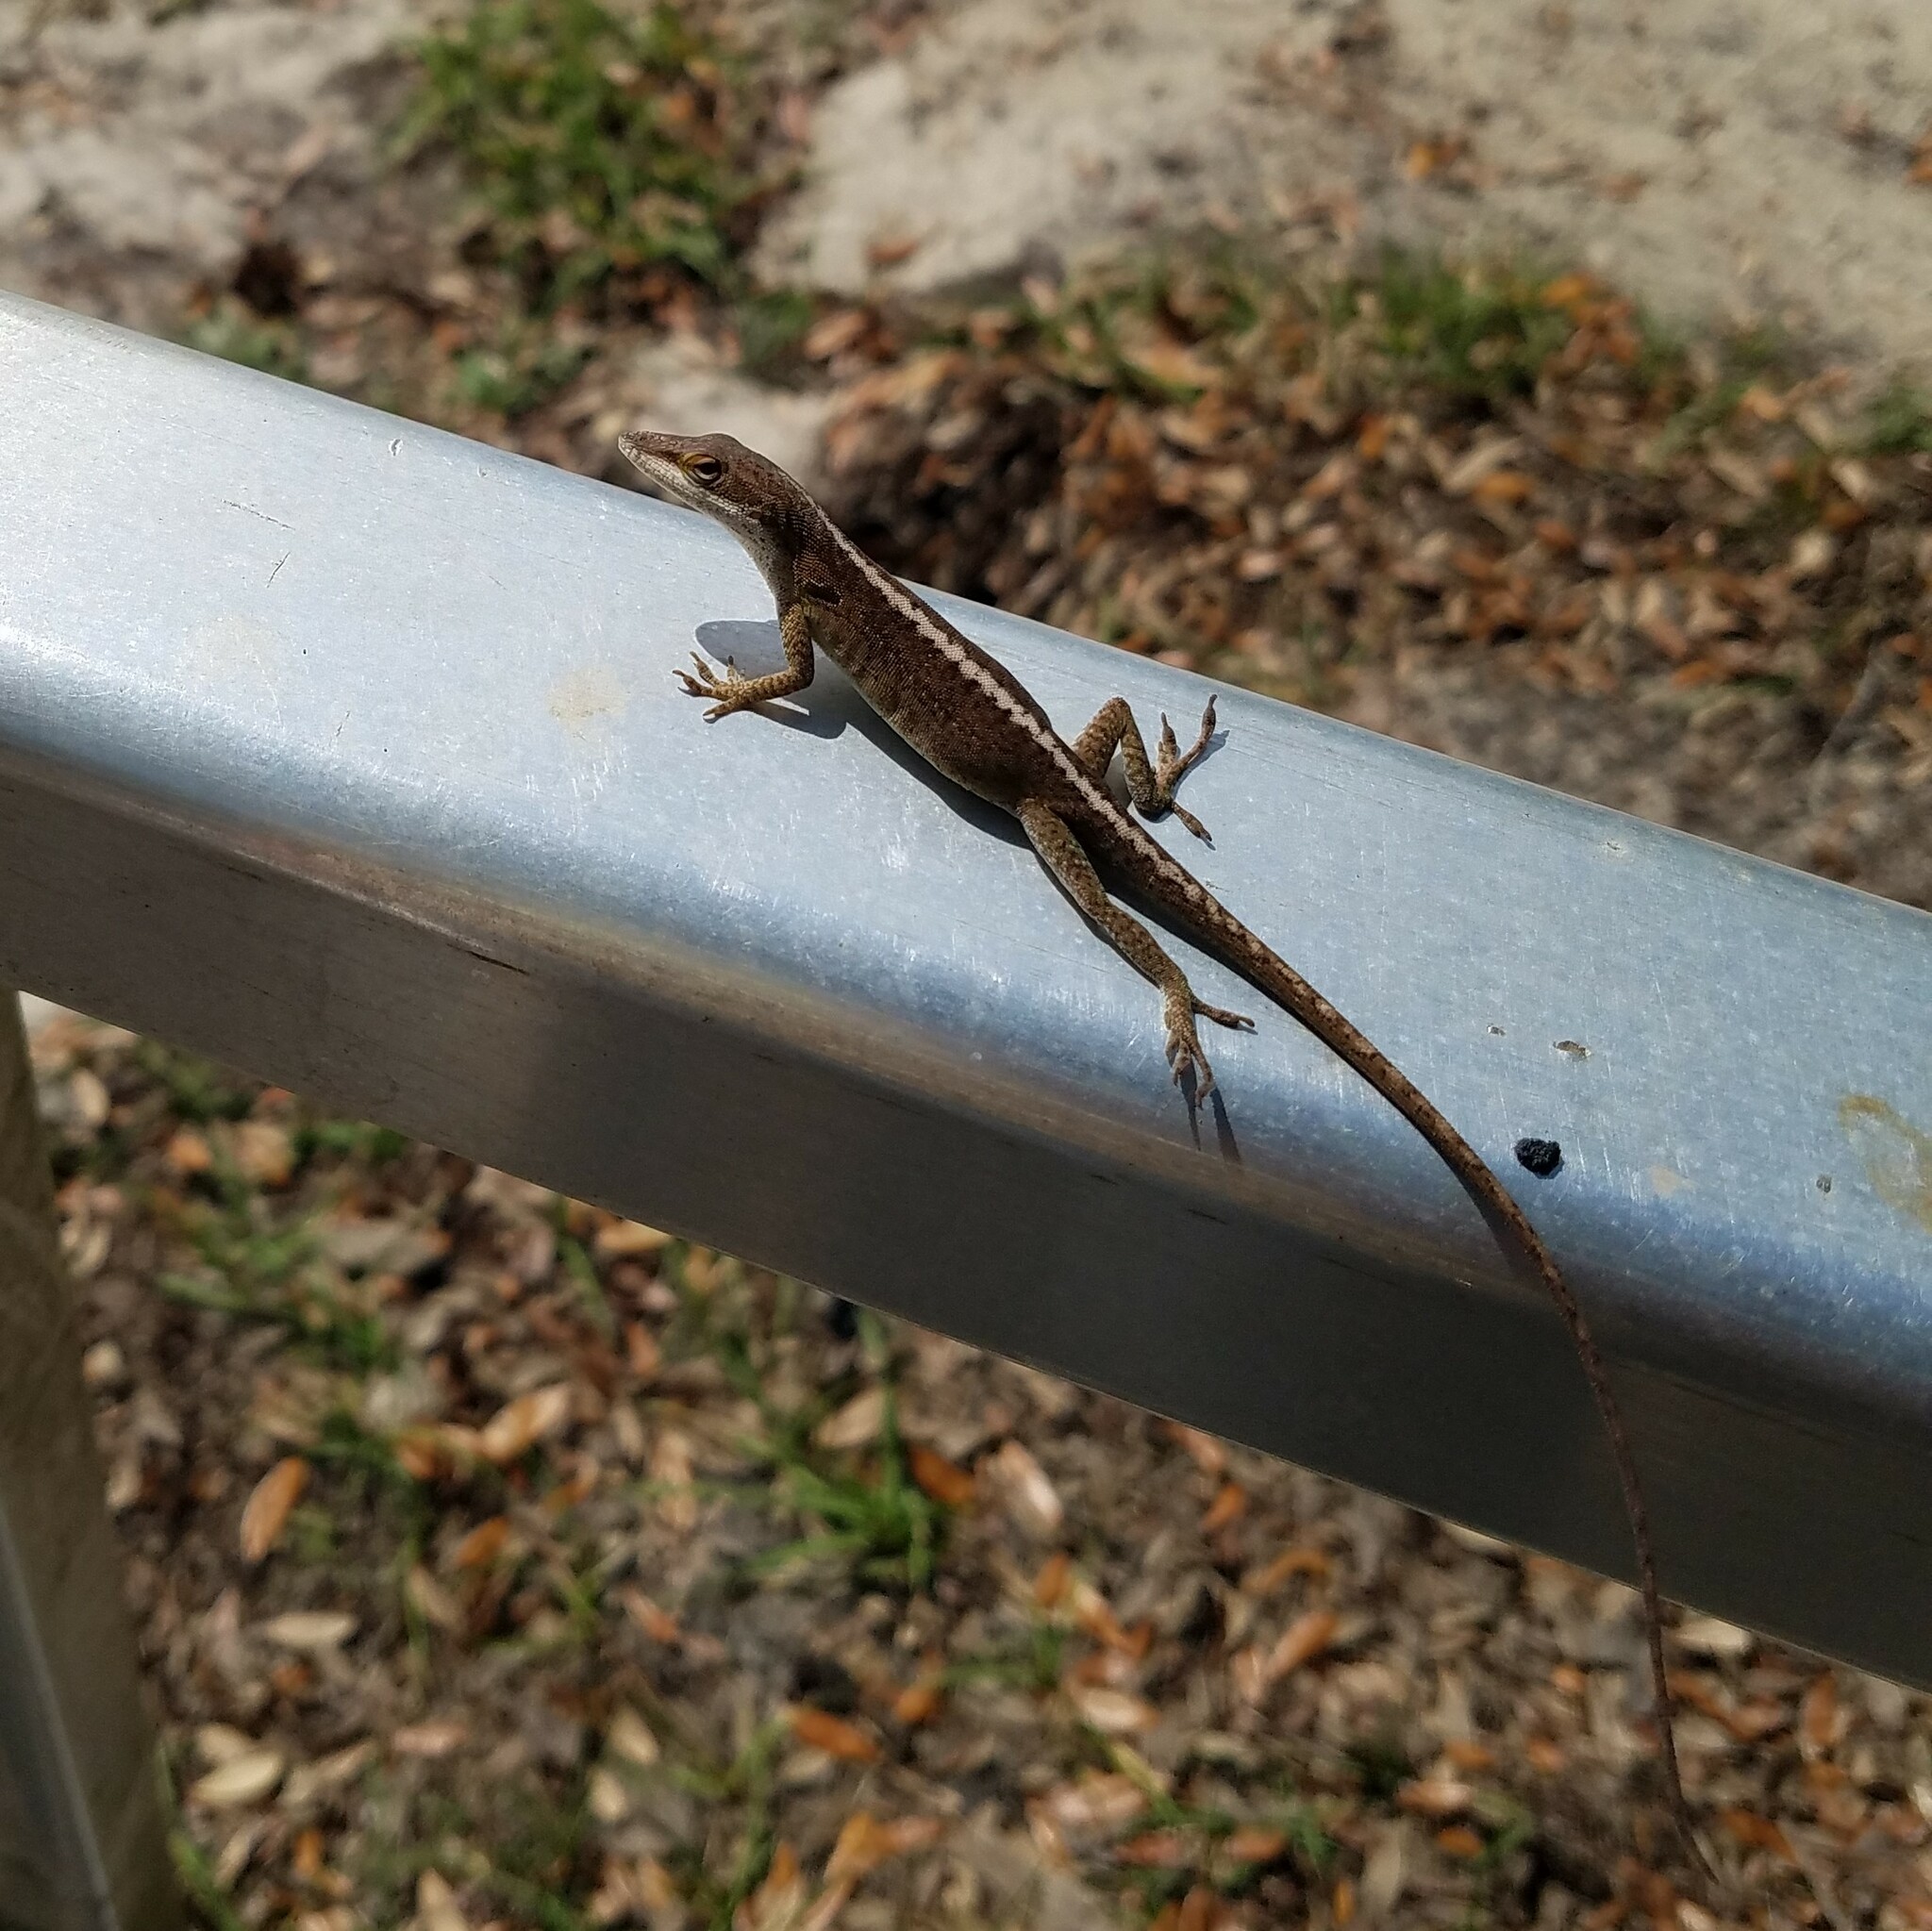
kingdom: Animalia
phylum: Chordata
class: Squamata
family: Dactyloidae
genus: Anolis
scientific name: Anolis carolinensis
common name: Green anole
